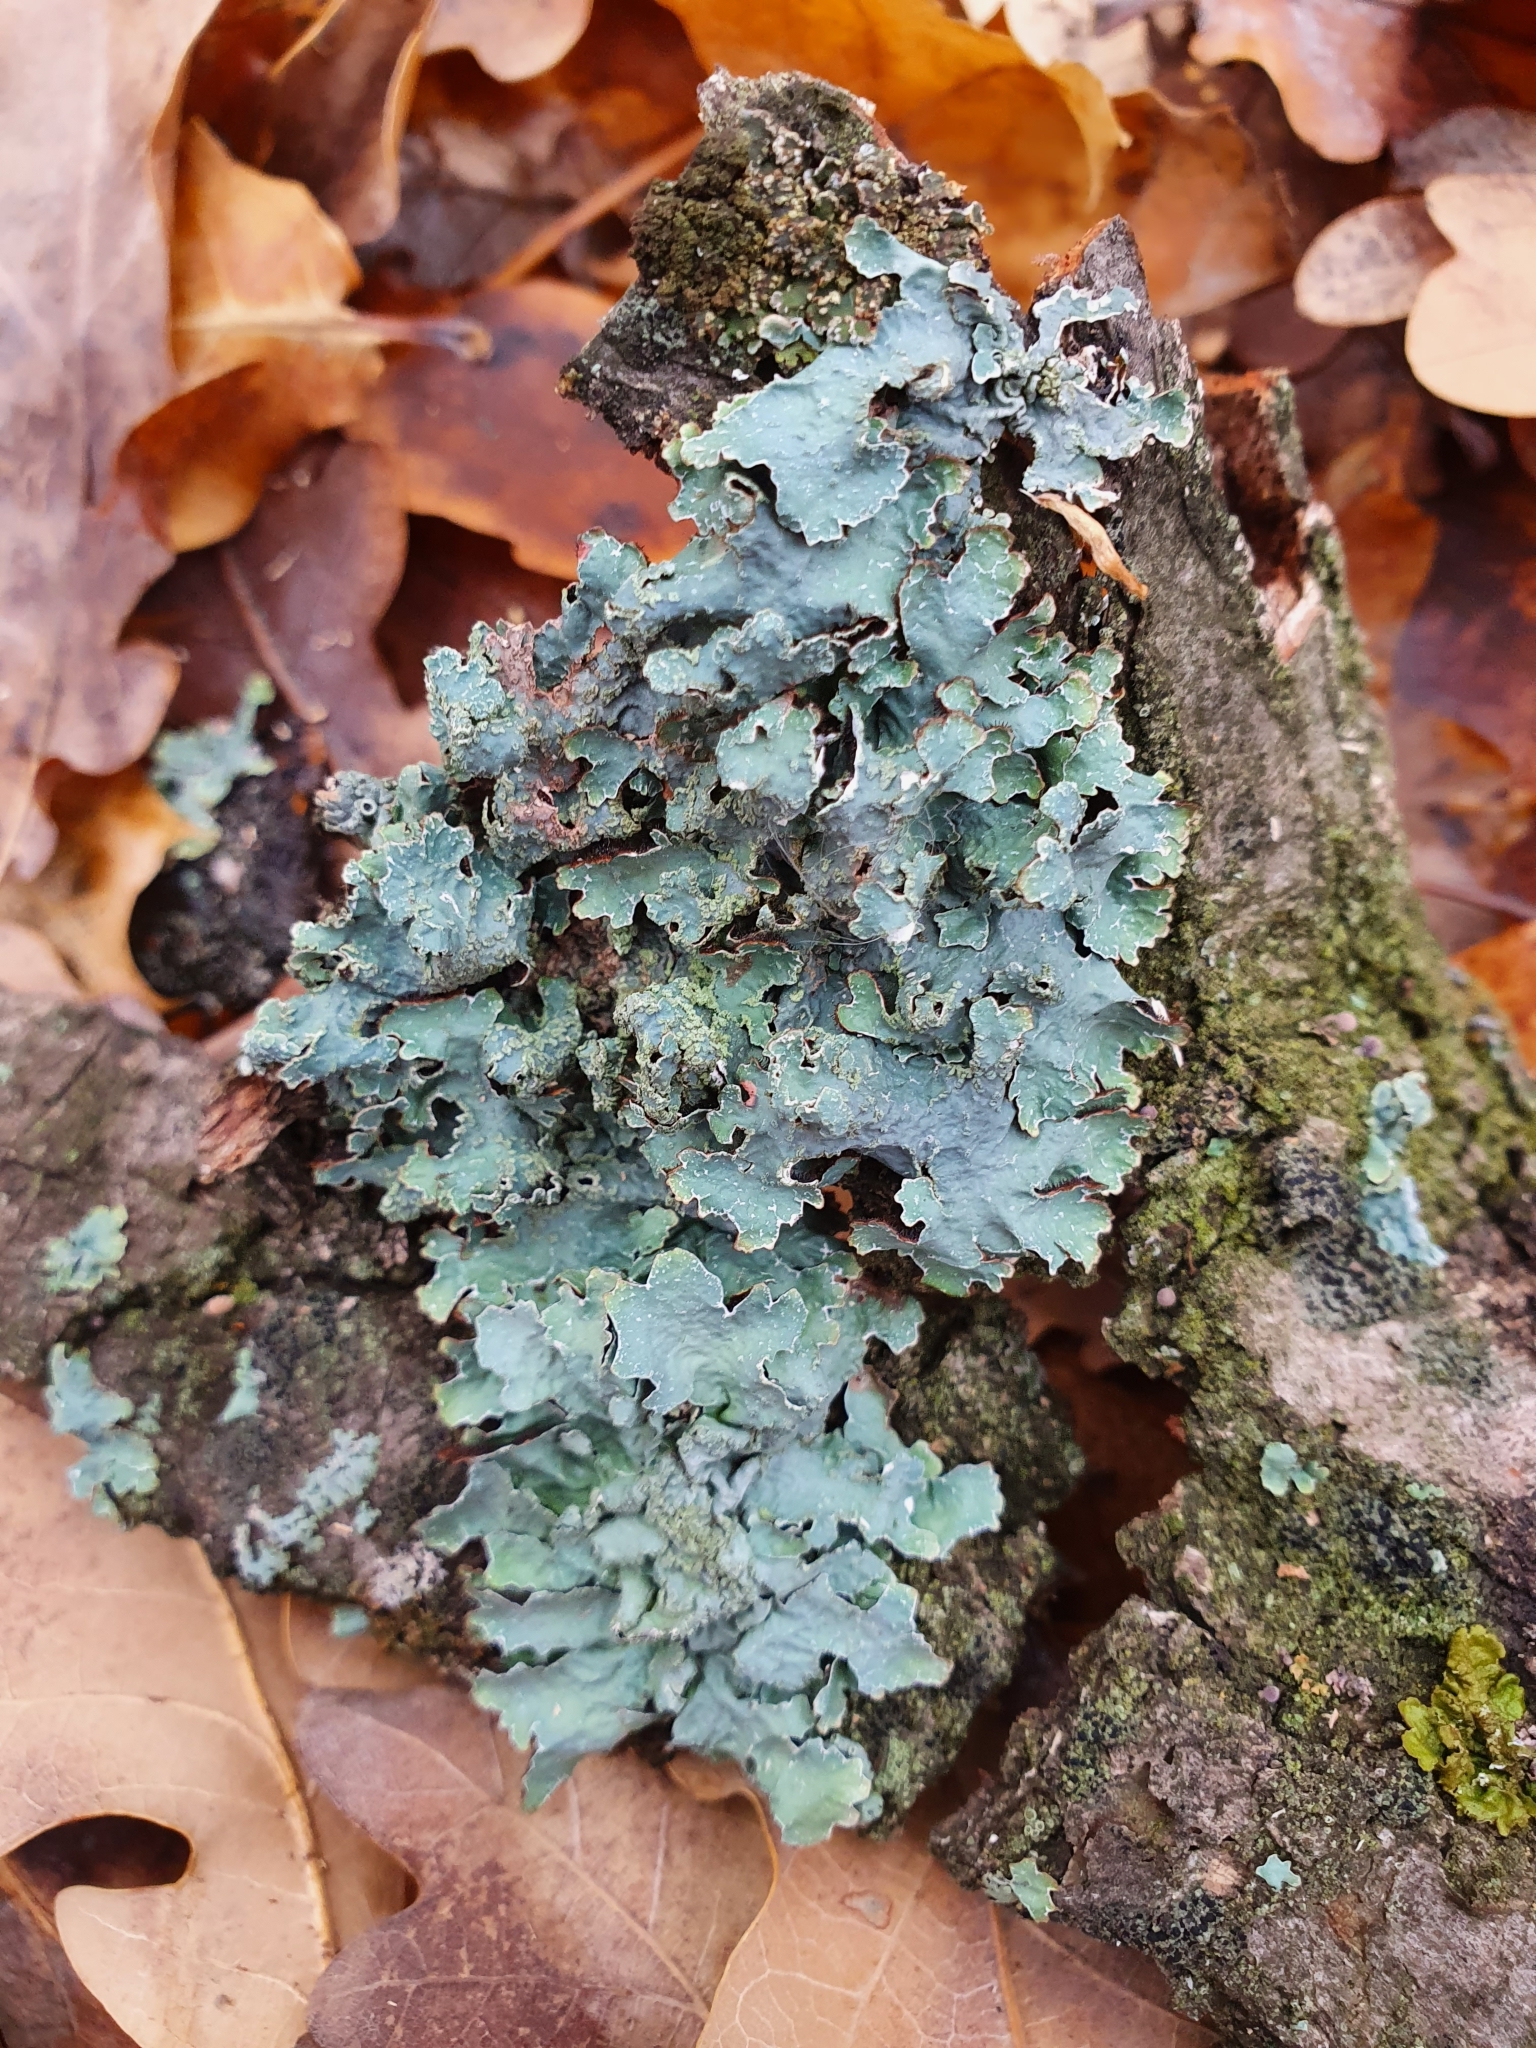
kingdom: Fungi
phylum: Ascomycota
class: Lecanoromycetes
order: Lecanorales
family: Parmeliaceae
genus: Parmelia
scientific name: Parmelia sulcata
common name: Netted shield lichen
